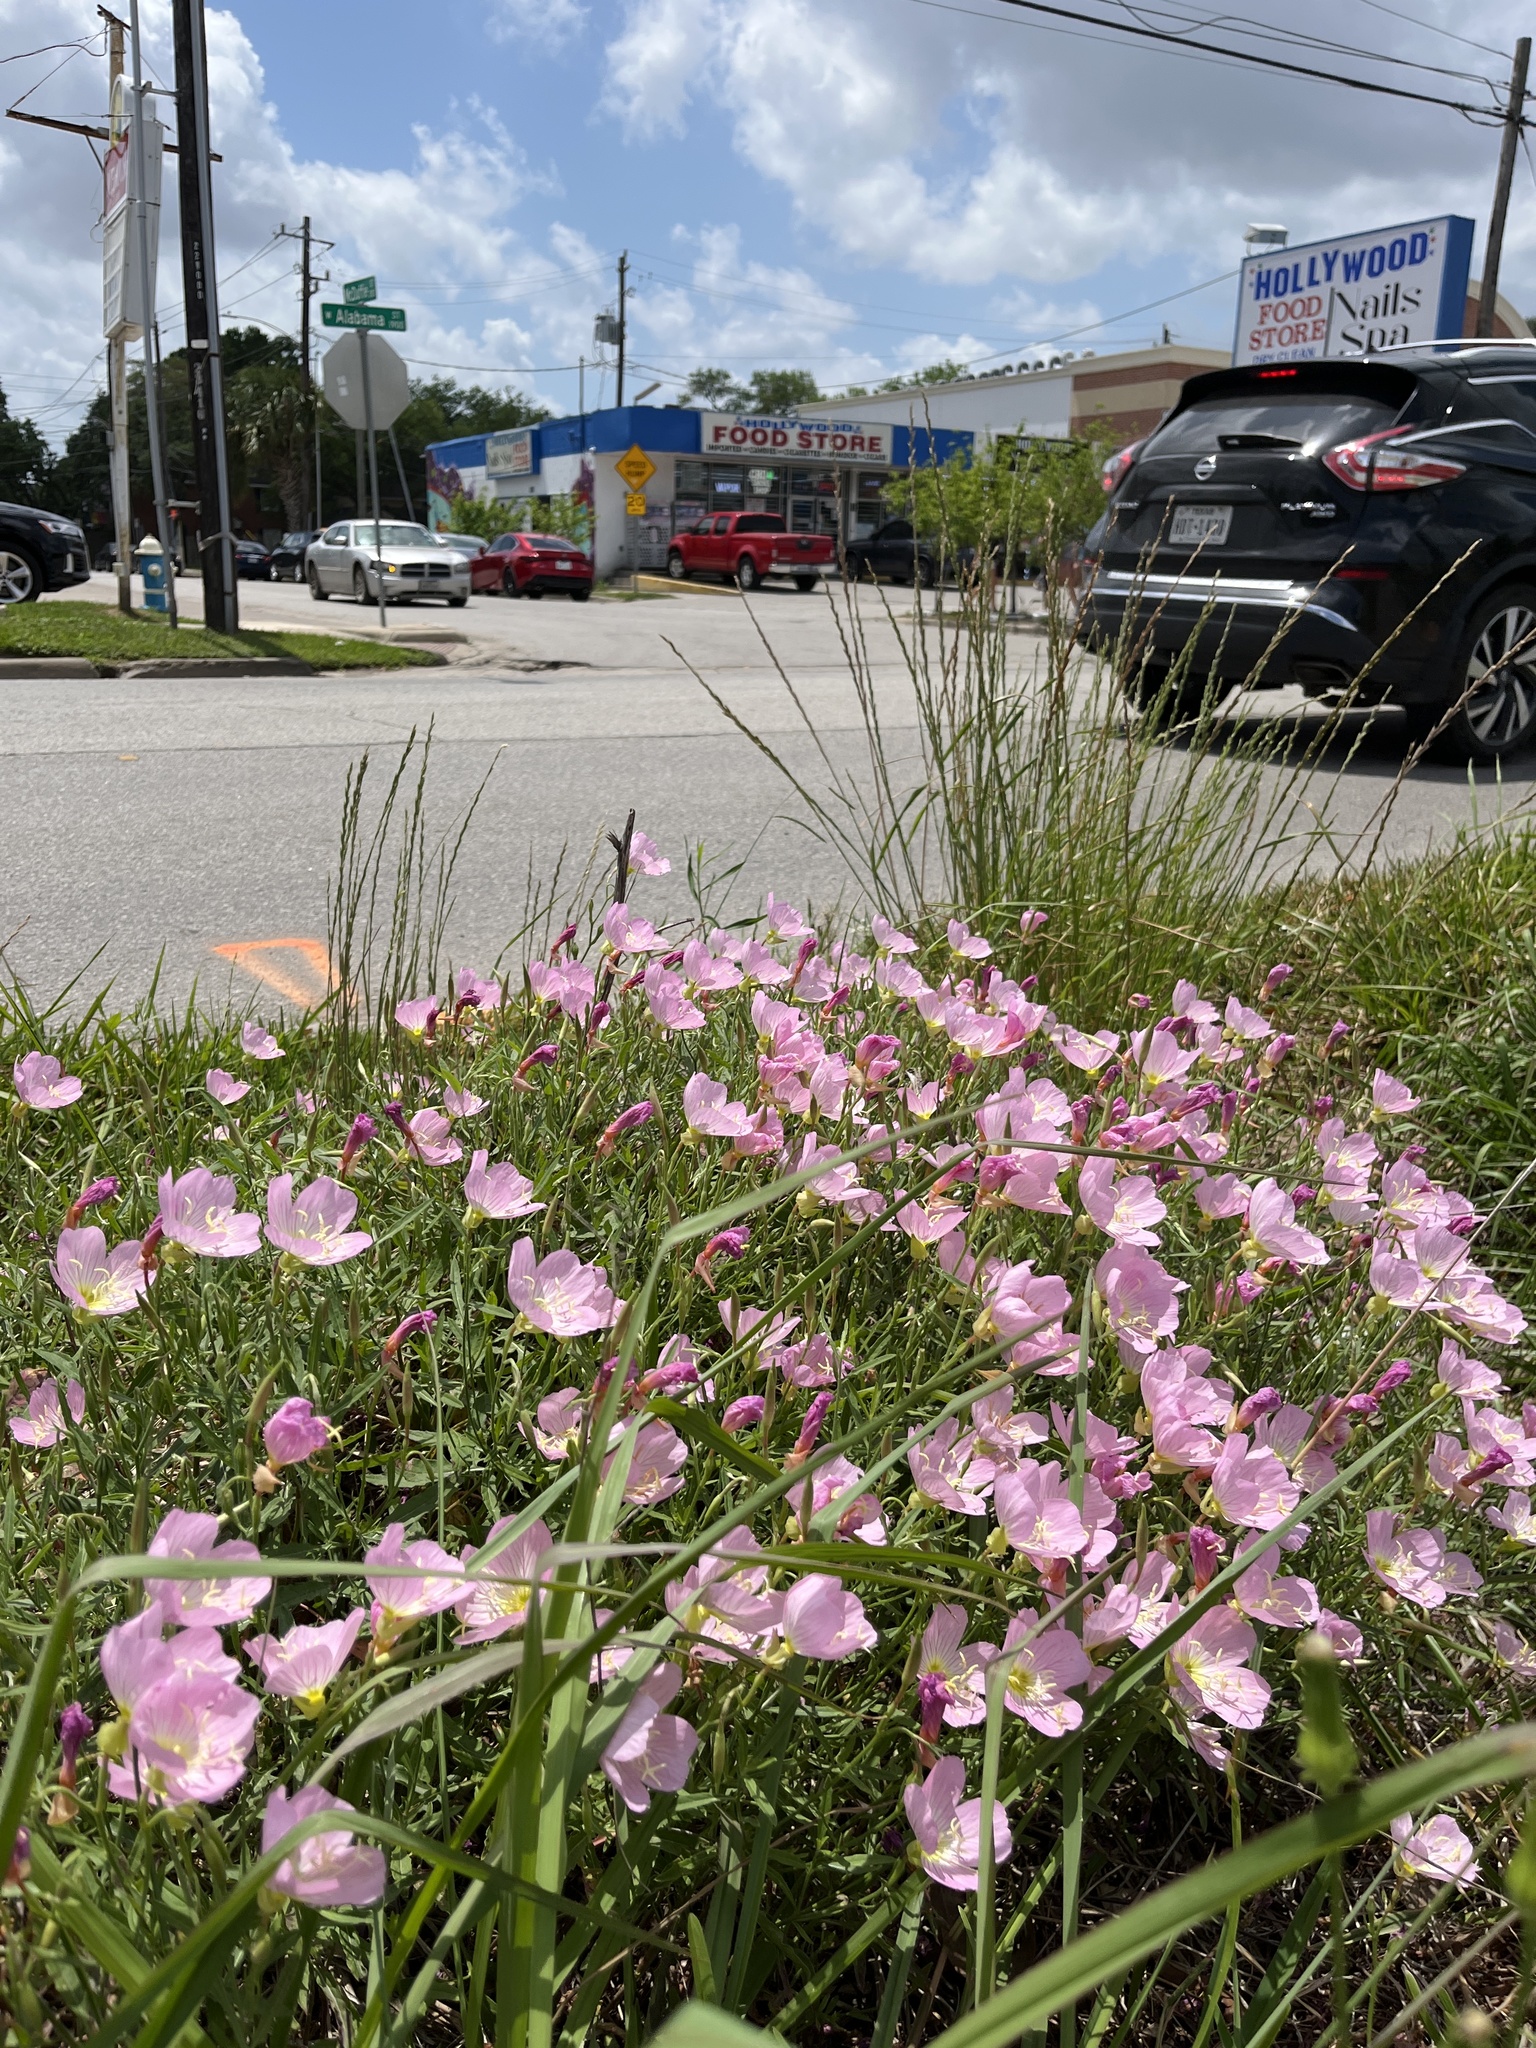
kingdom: Plantae
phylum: Tracheophyta
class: Magnoliopsida
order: Myrtales
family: Onagraceae
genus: Oenothera
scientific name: Oenothera speciosa
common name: White evening-primrose
